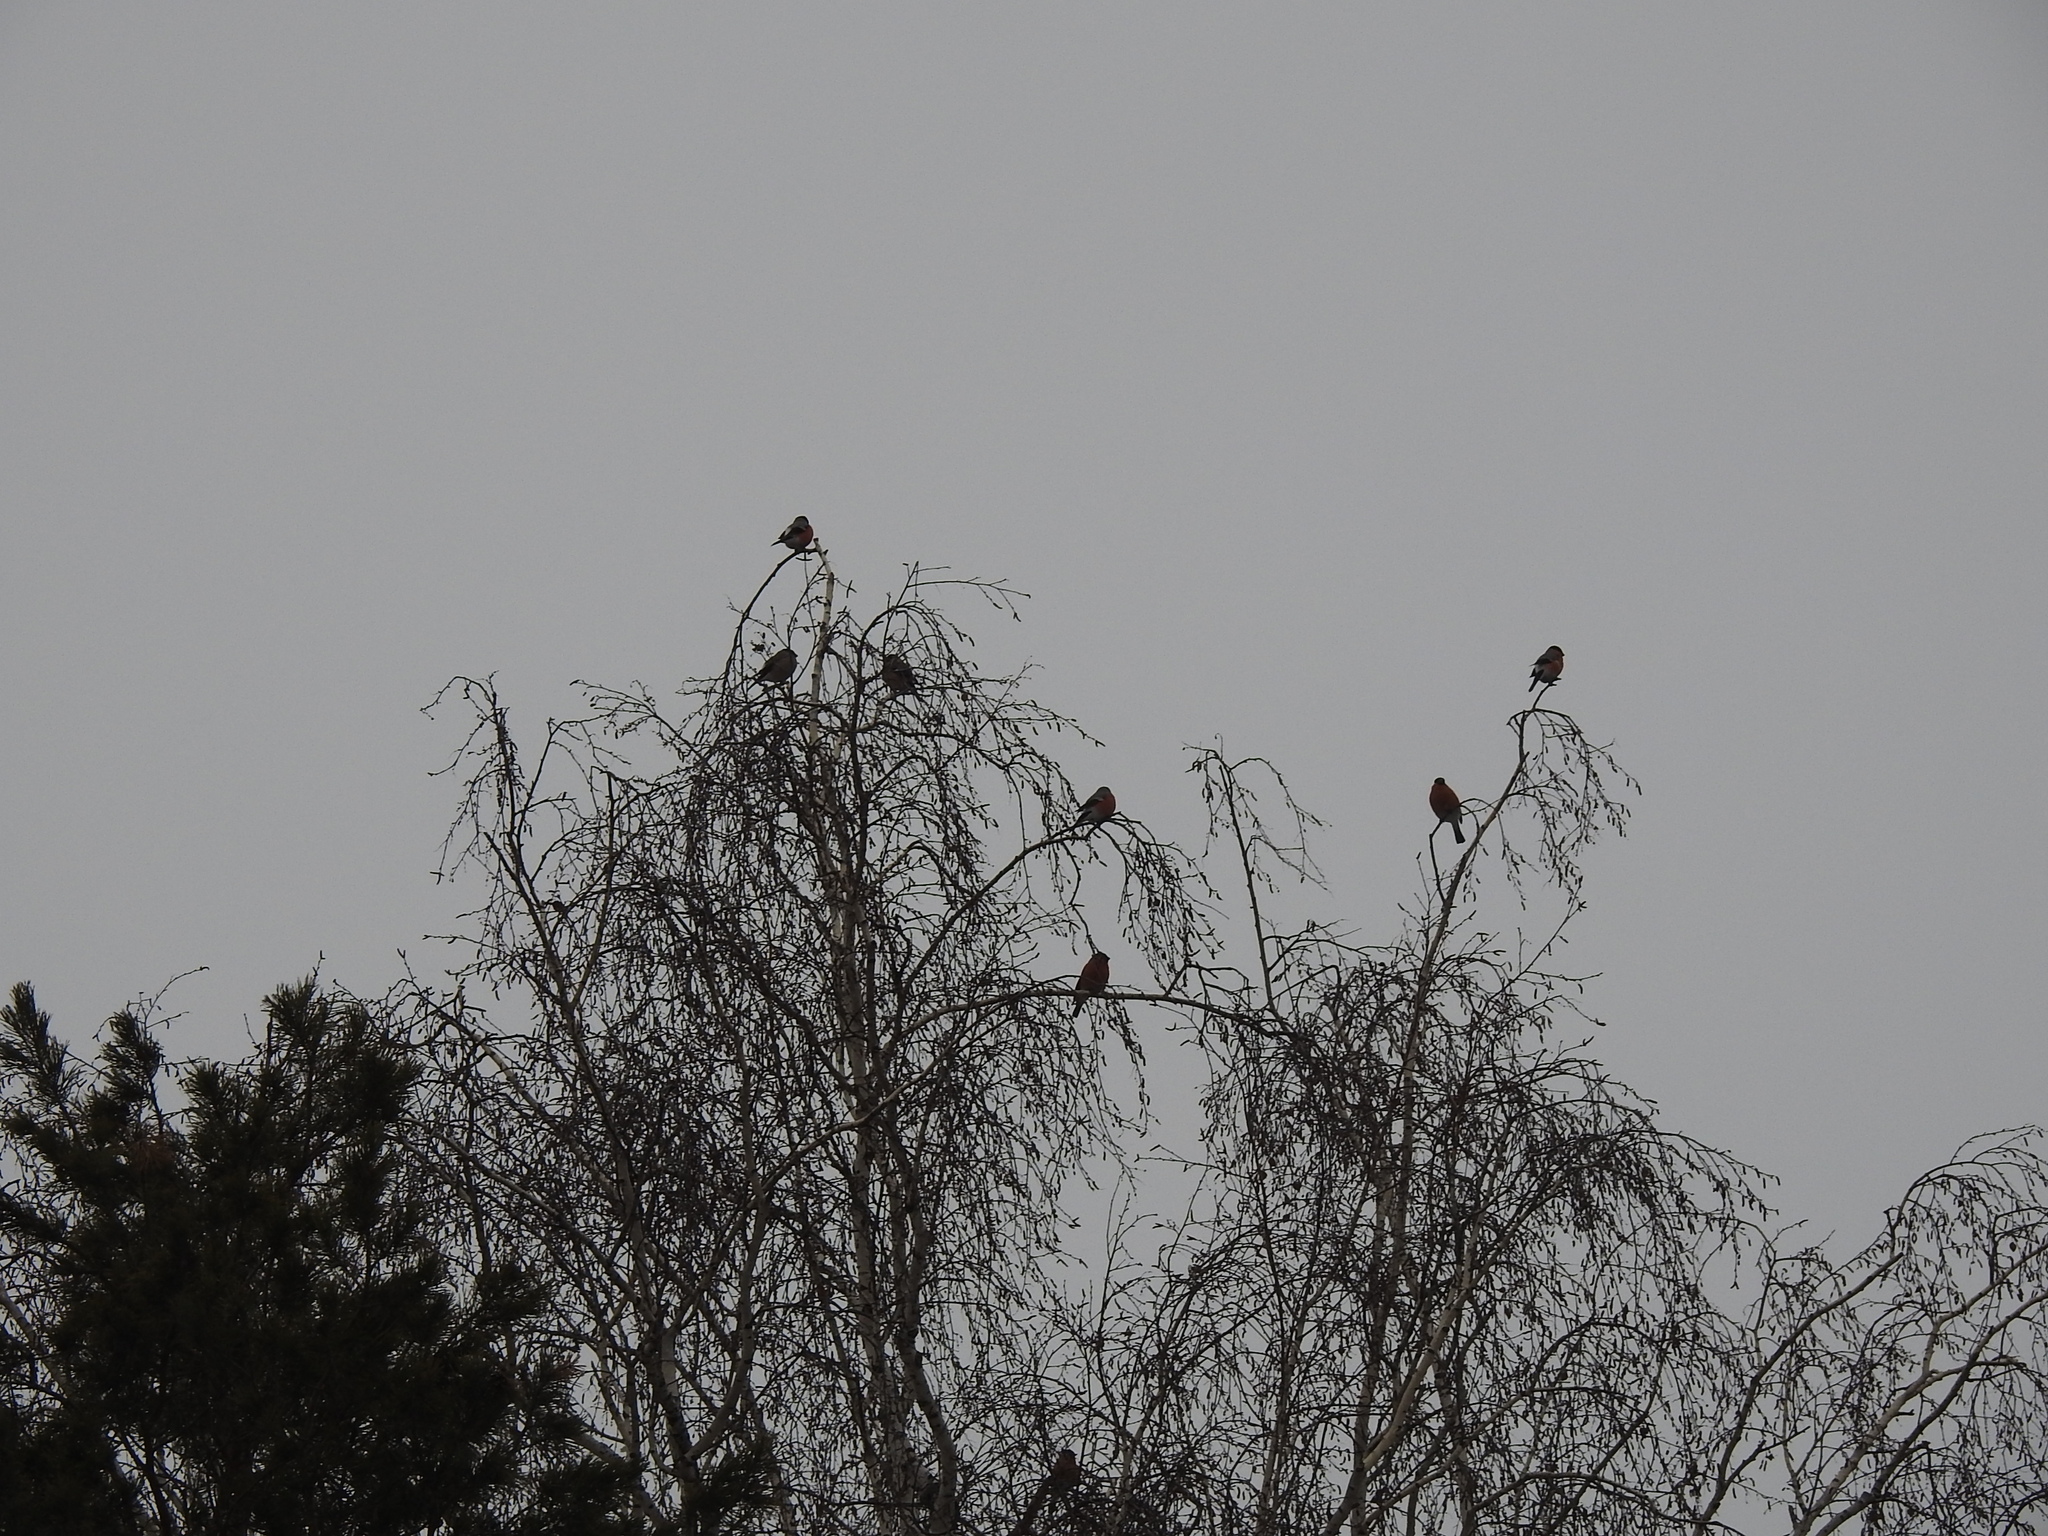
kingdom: Animalia
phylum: Chordata
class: Aves
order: Passeriformes
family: Fringillidae
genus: Pyrrhula
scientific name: Pyrrhula pyrrhula
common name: Eurasian bullfinch
